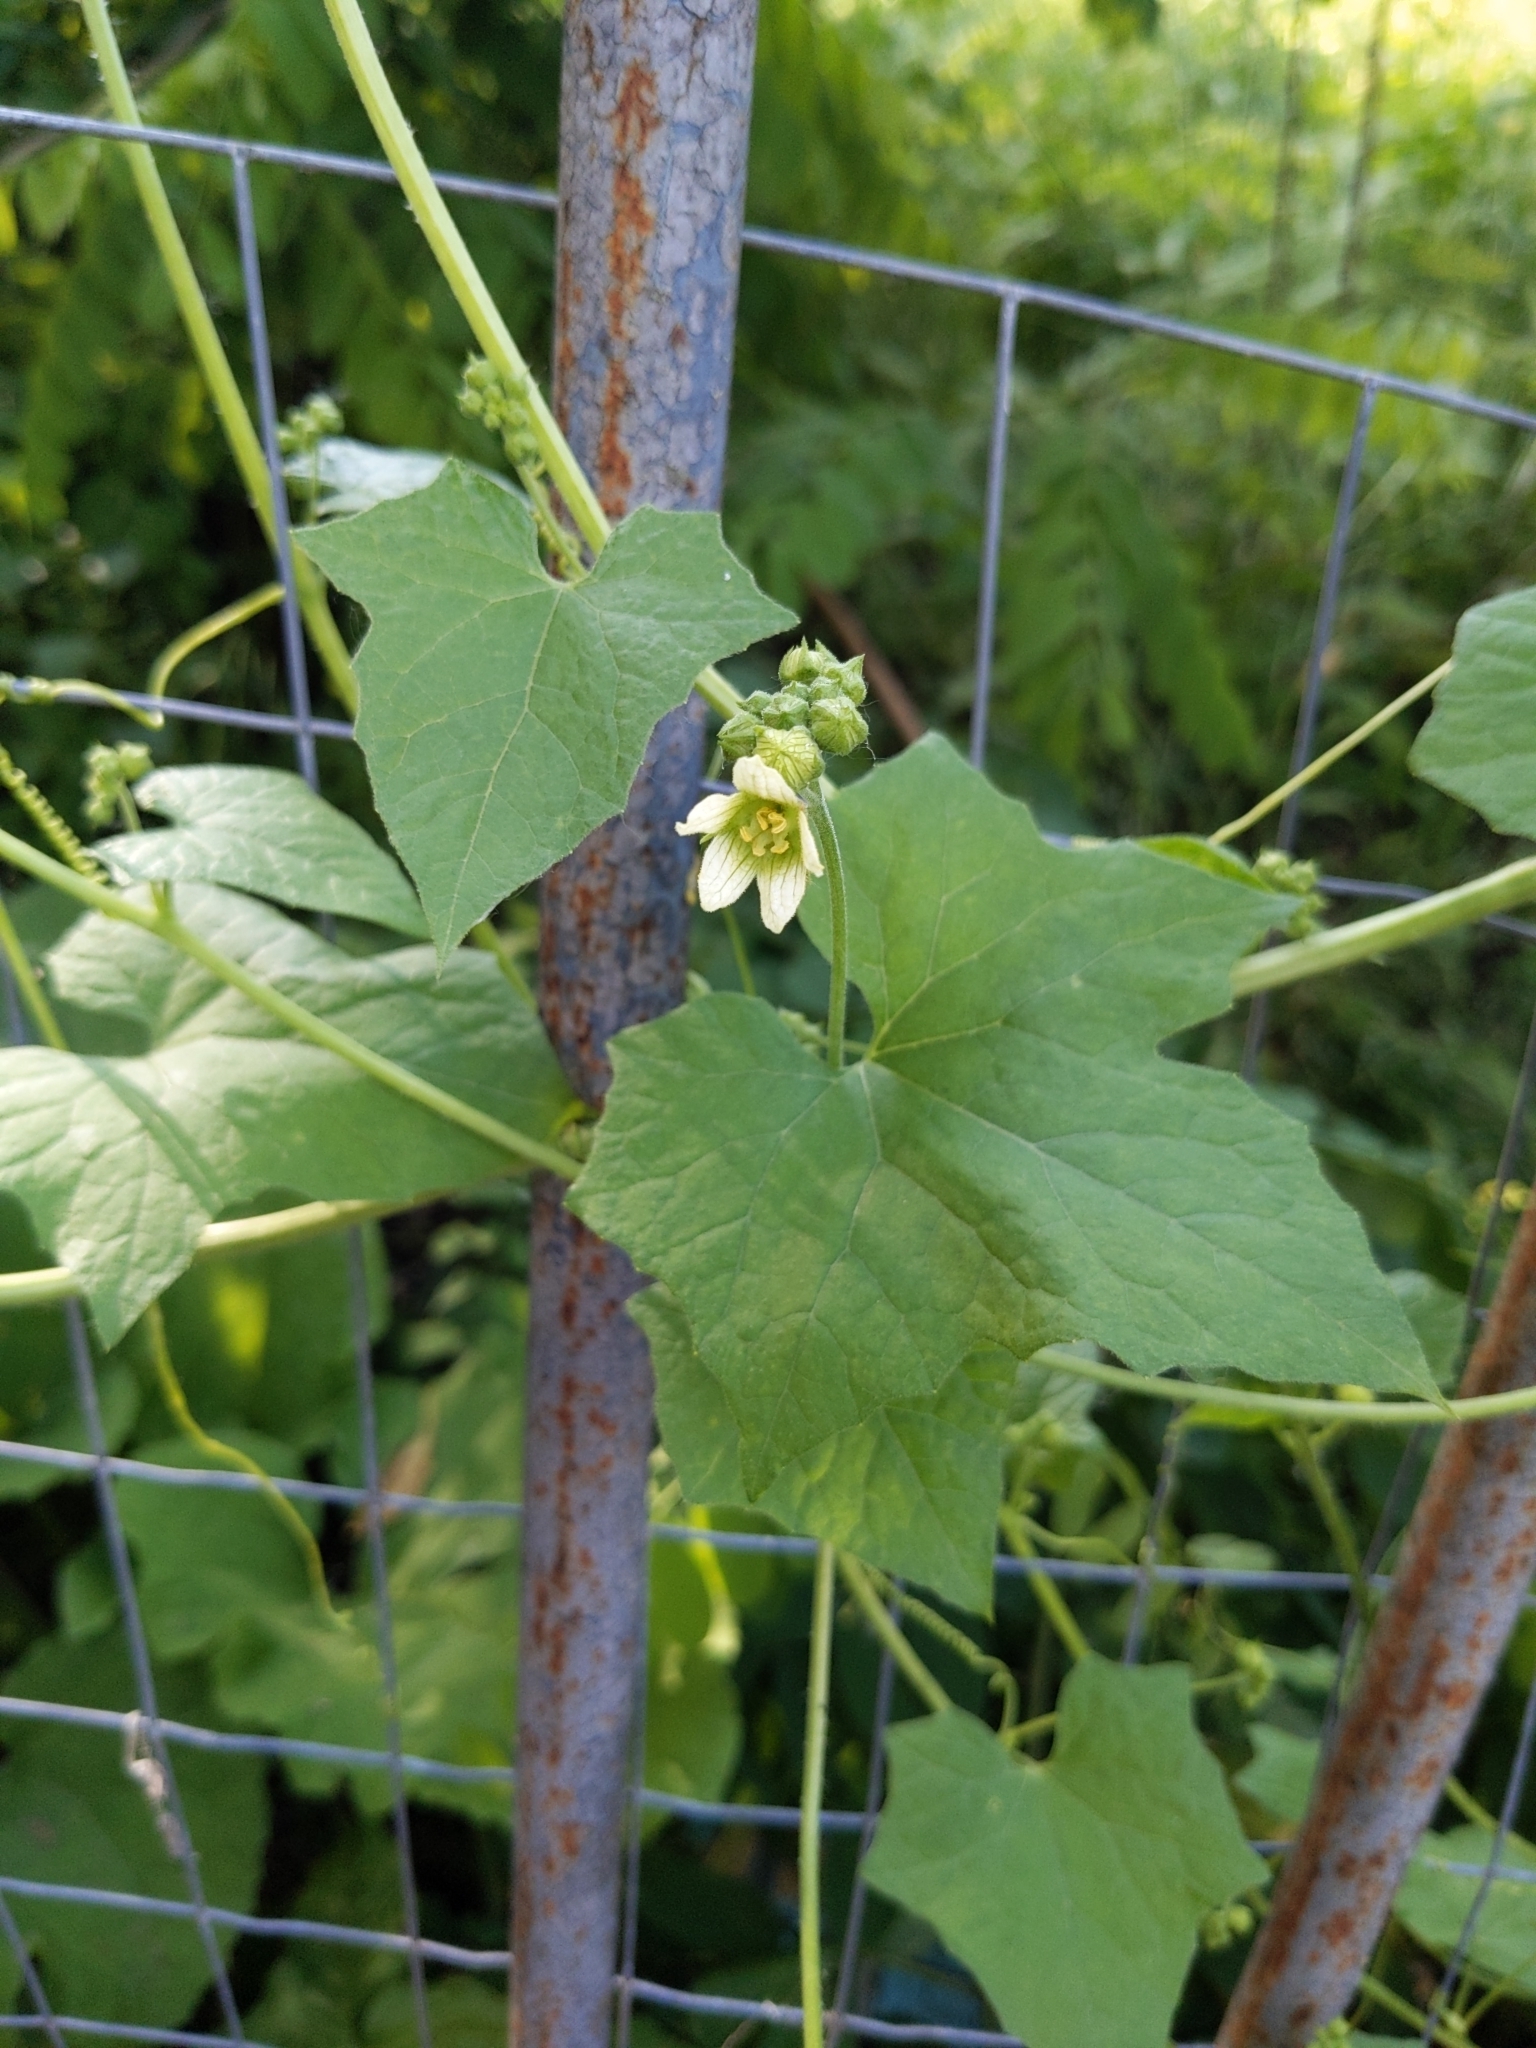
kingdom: Plantae
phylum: Tracheophyta
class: Magnoliopsida
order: Cucurbitales
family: Cucurbitaceae
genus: Bryonia
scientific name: Bryonia cretica
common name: Cretan bryony
